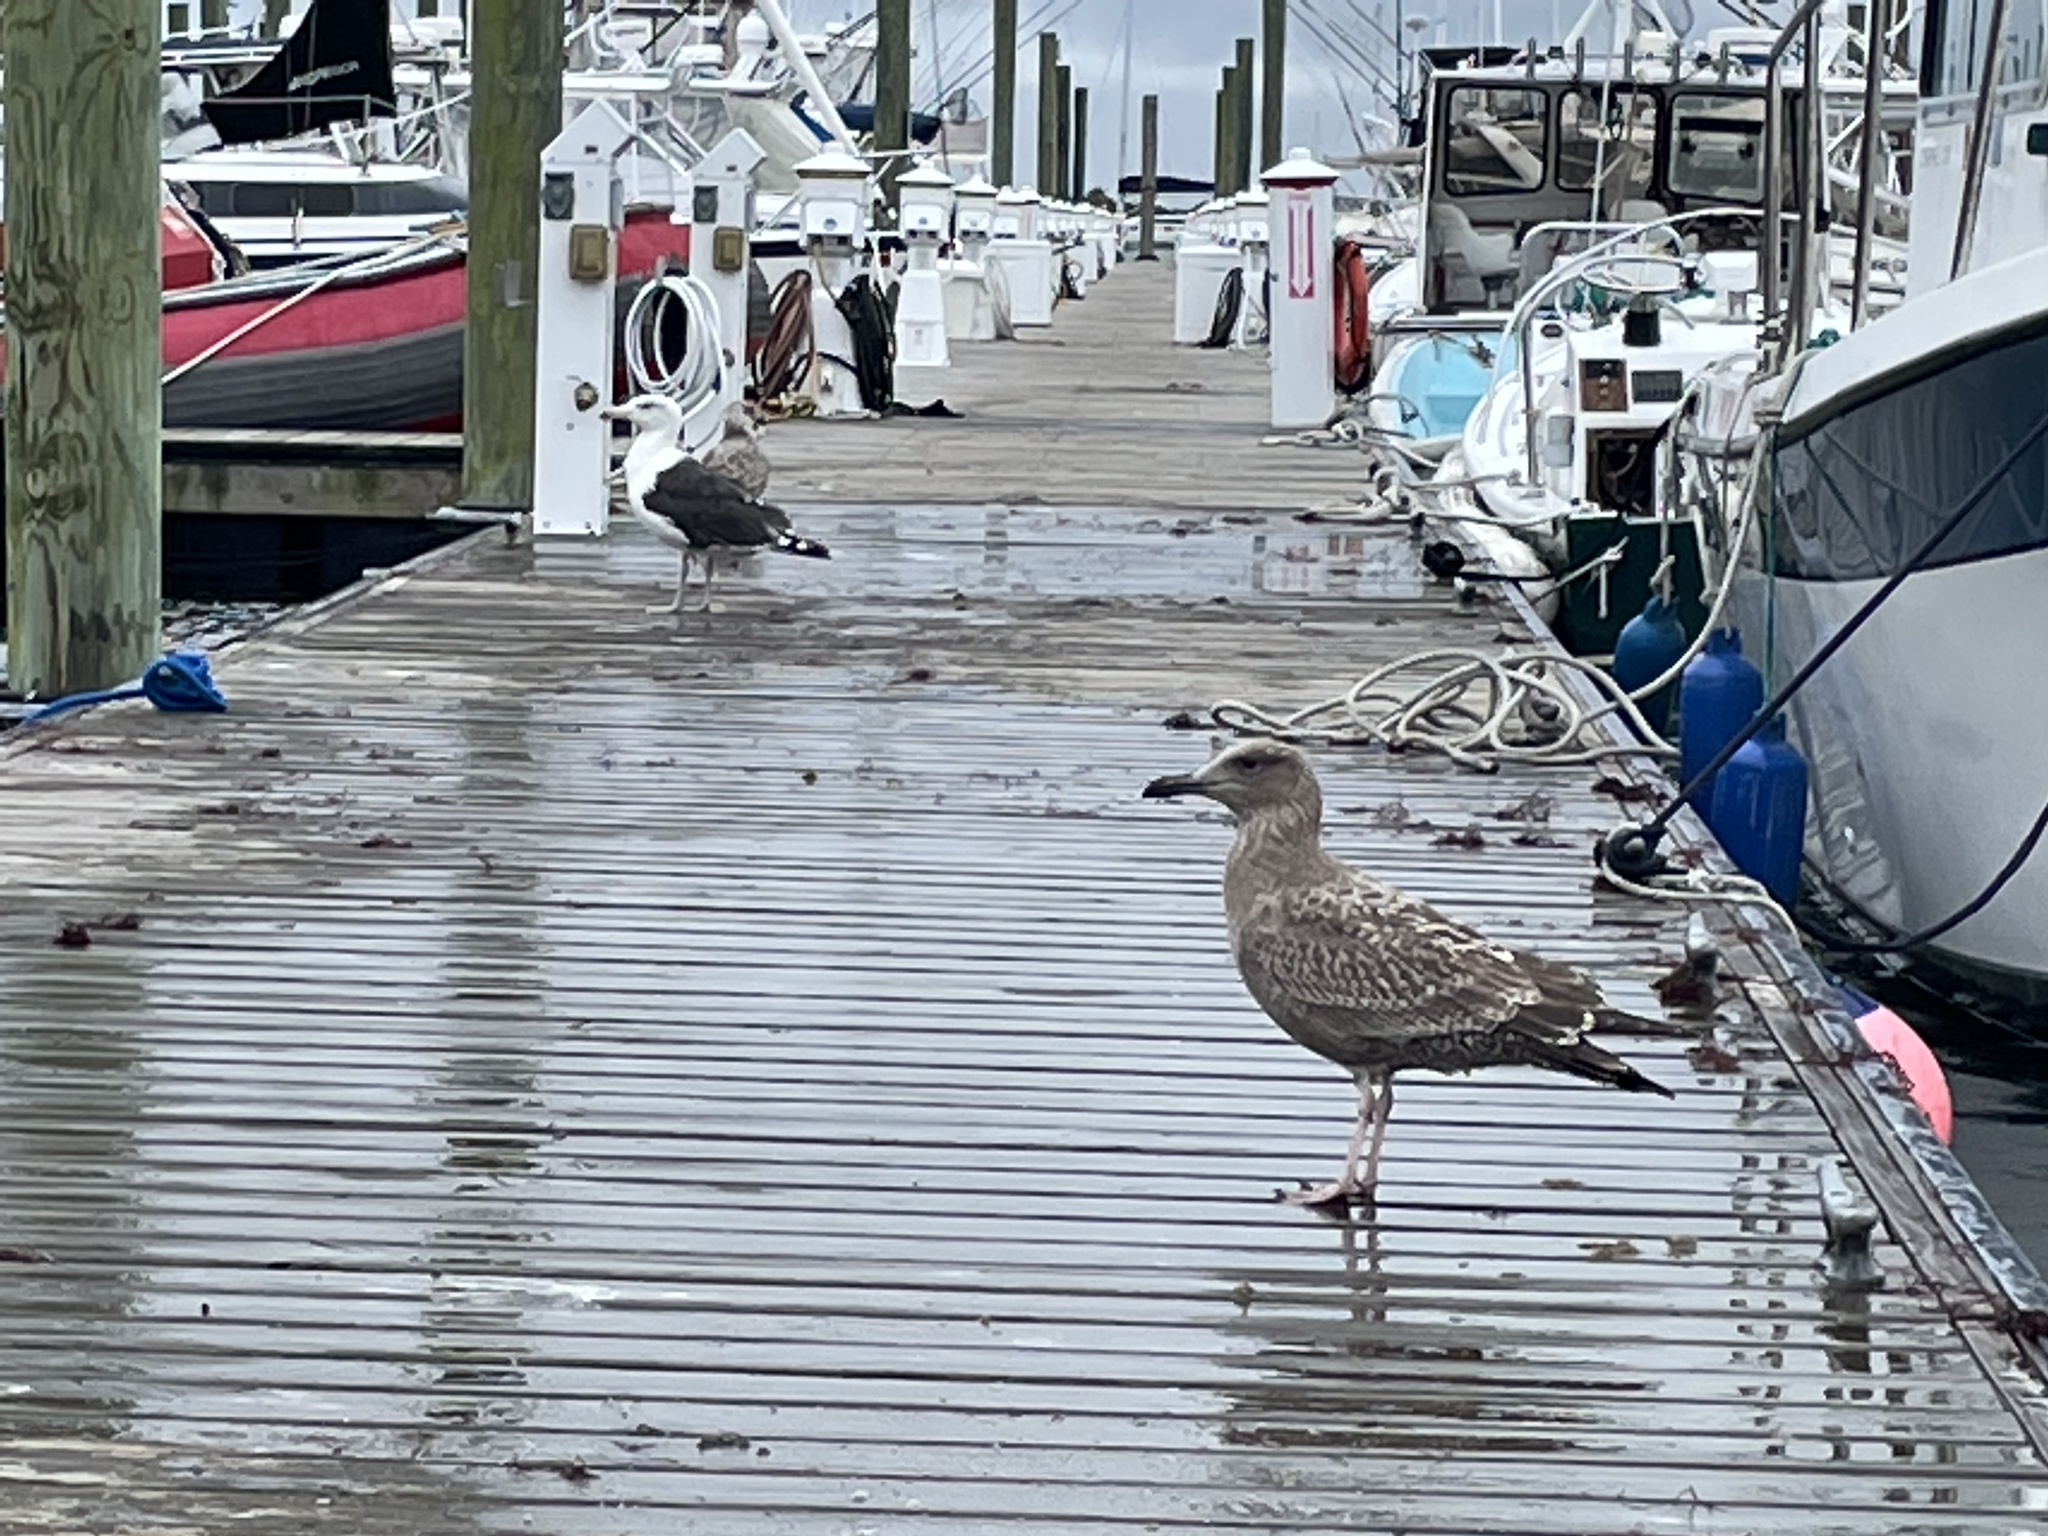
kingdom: Animalia
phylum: Chordata
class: Aves
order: Charadriiformes
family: Laridae
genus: Larus
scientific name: Larus marinus
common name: Great black-backed gull
